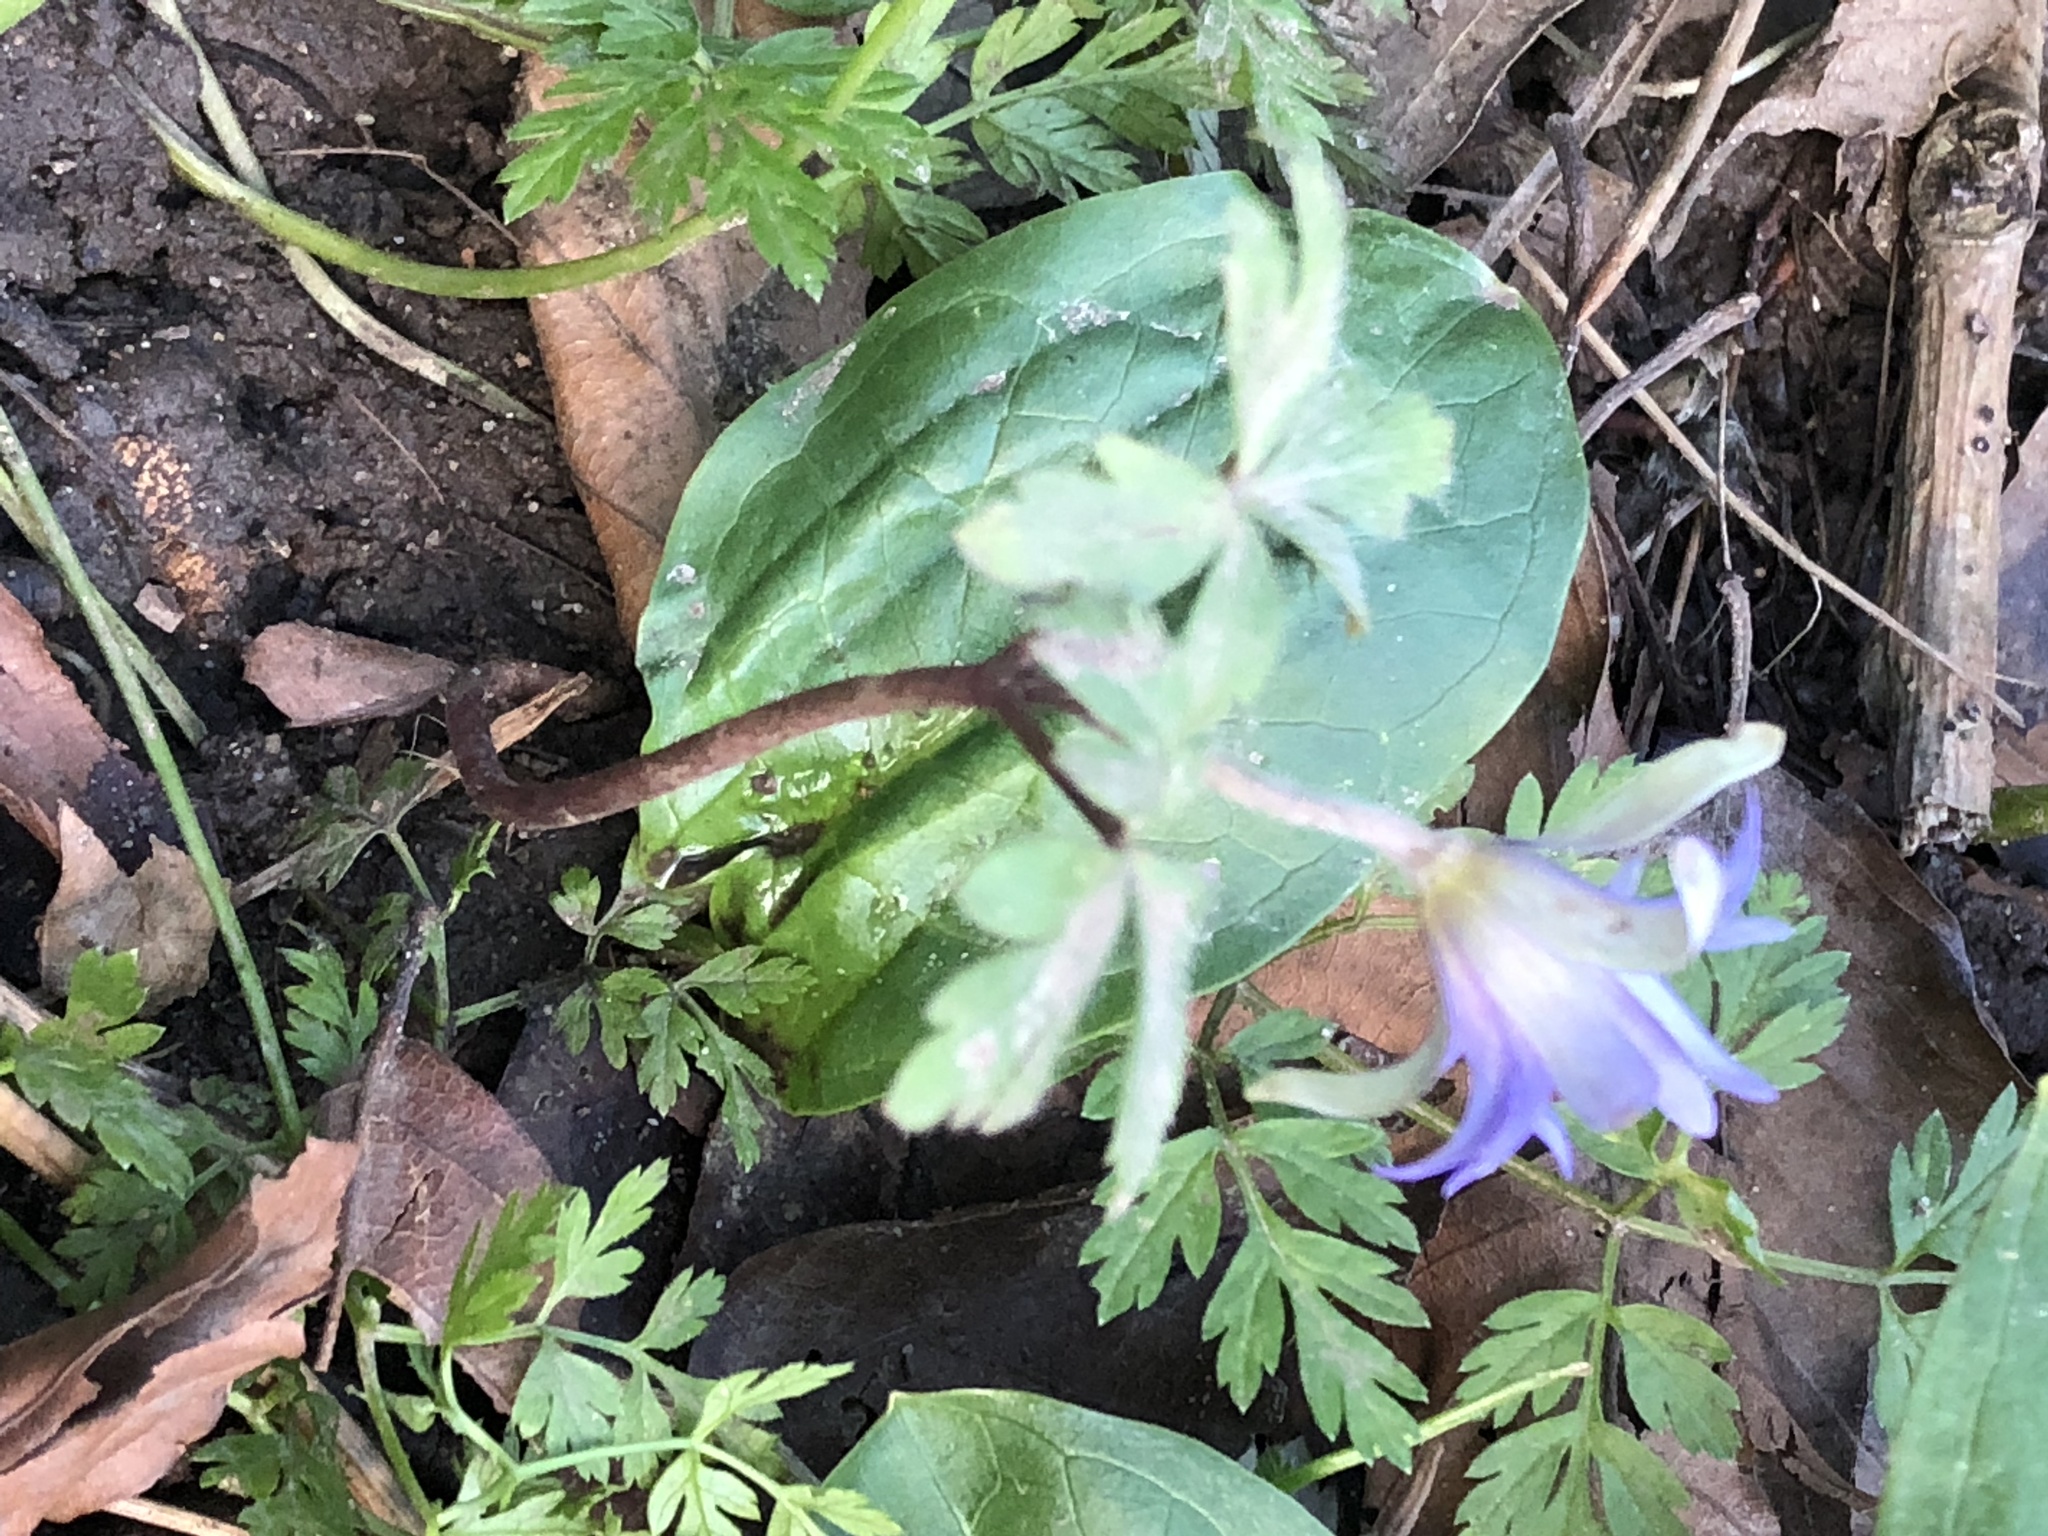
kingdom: Plantae
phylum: Tracheophyta
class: Magnoliopsida
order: Ranunculales
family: Ranunculaceae
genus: Anemone
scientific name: Anemone blanda
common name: Balkan anemone
